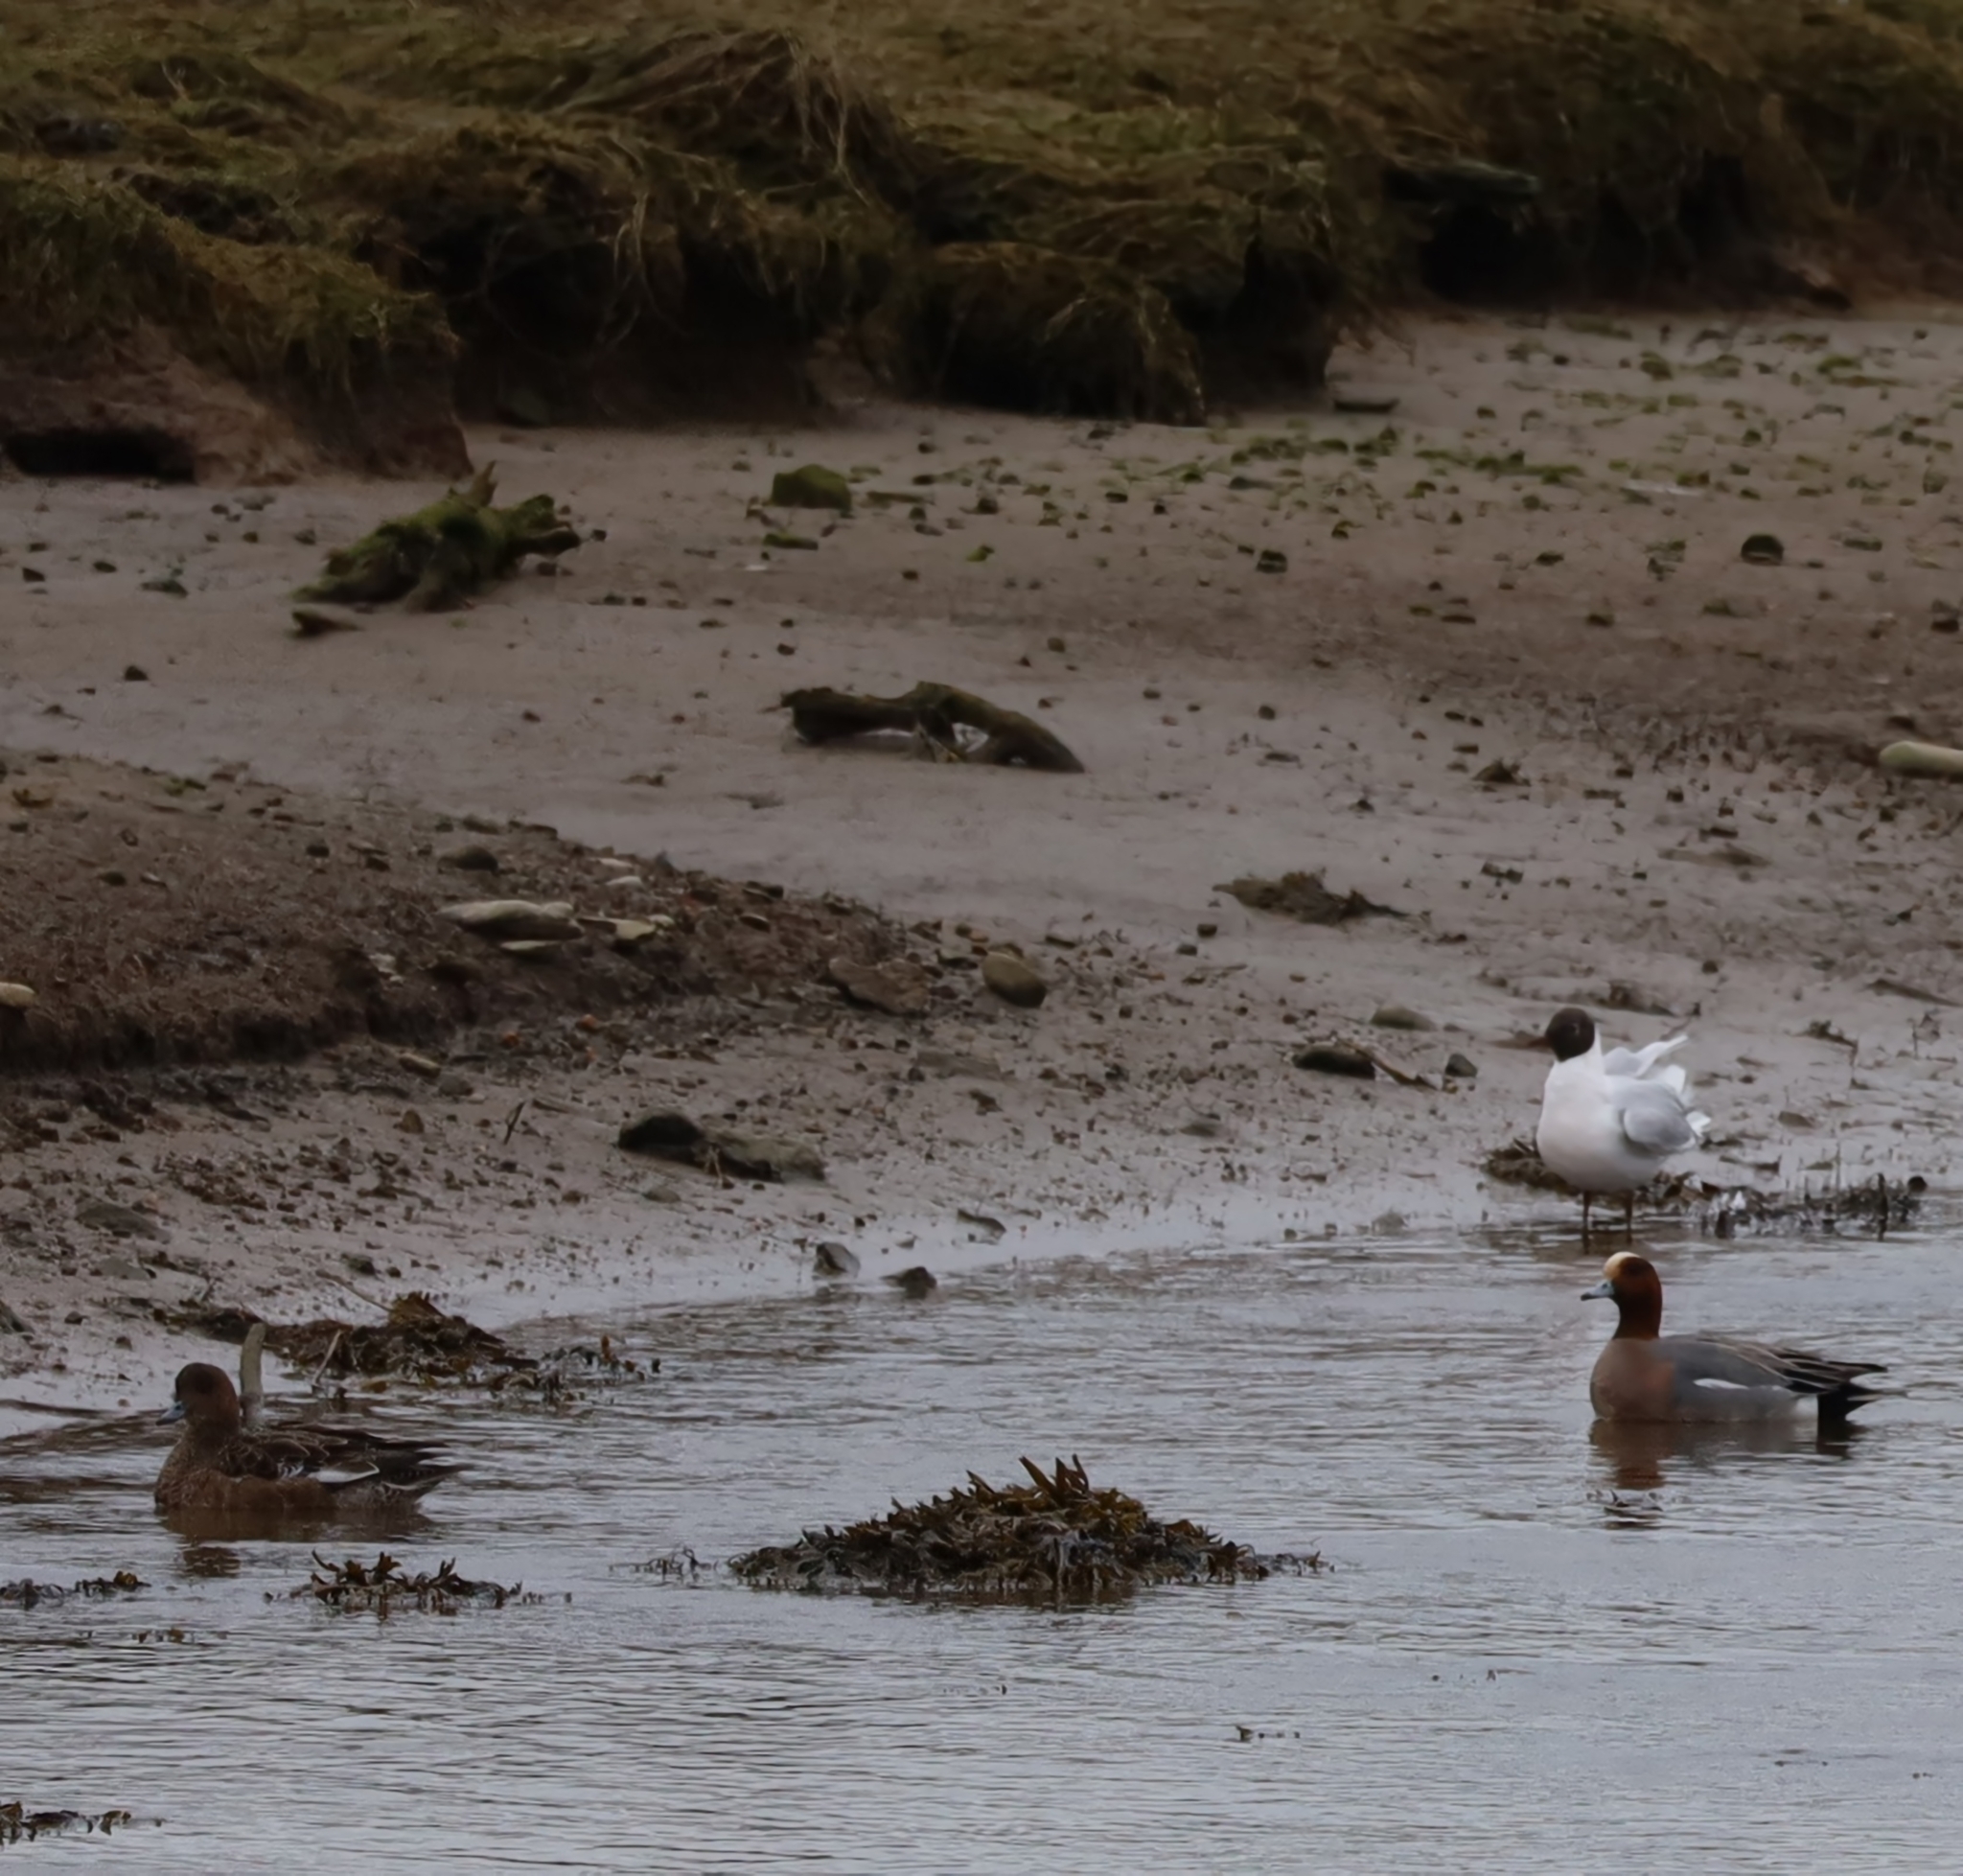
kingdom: Animalia
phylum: Chordata
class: Aves
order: Anseriformes
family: Anatidae
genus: Mareca
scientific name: Mareca penelope
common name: Eurasian wigeon
